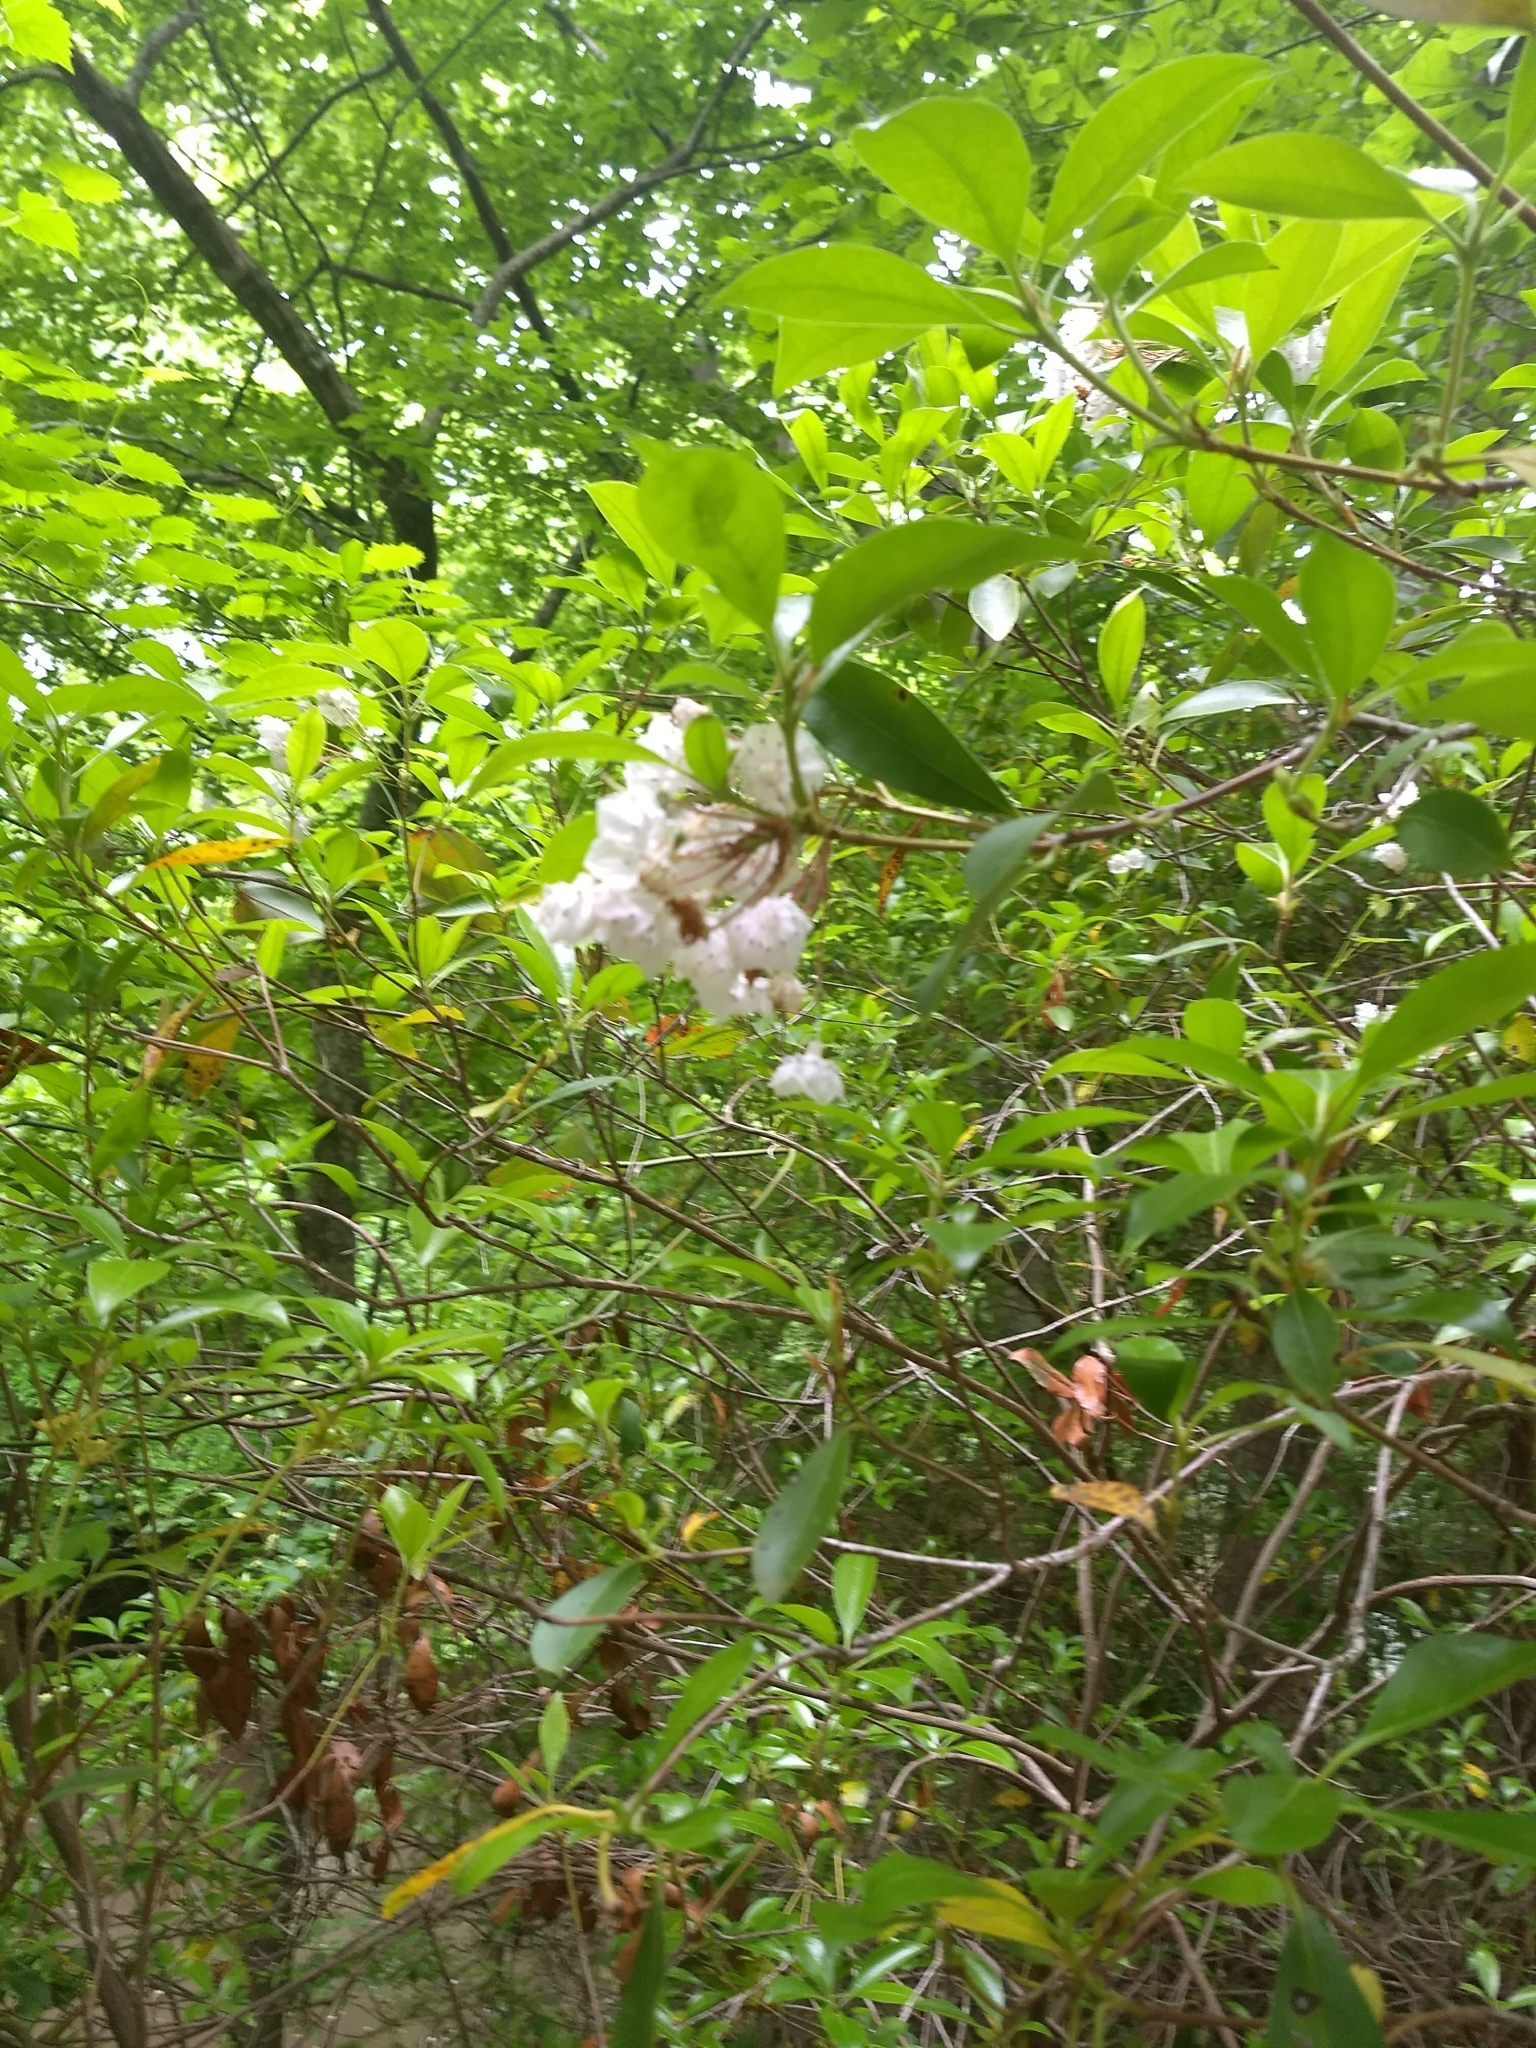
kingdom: Plantae
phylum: Tracheophyta
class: Magnoliopsida
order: Ericales
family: Ericaceae
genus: Kalmia
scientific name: Kalmia latifolia
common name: Mountain-laurel
